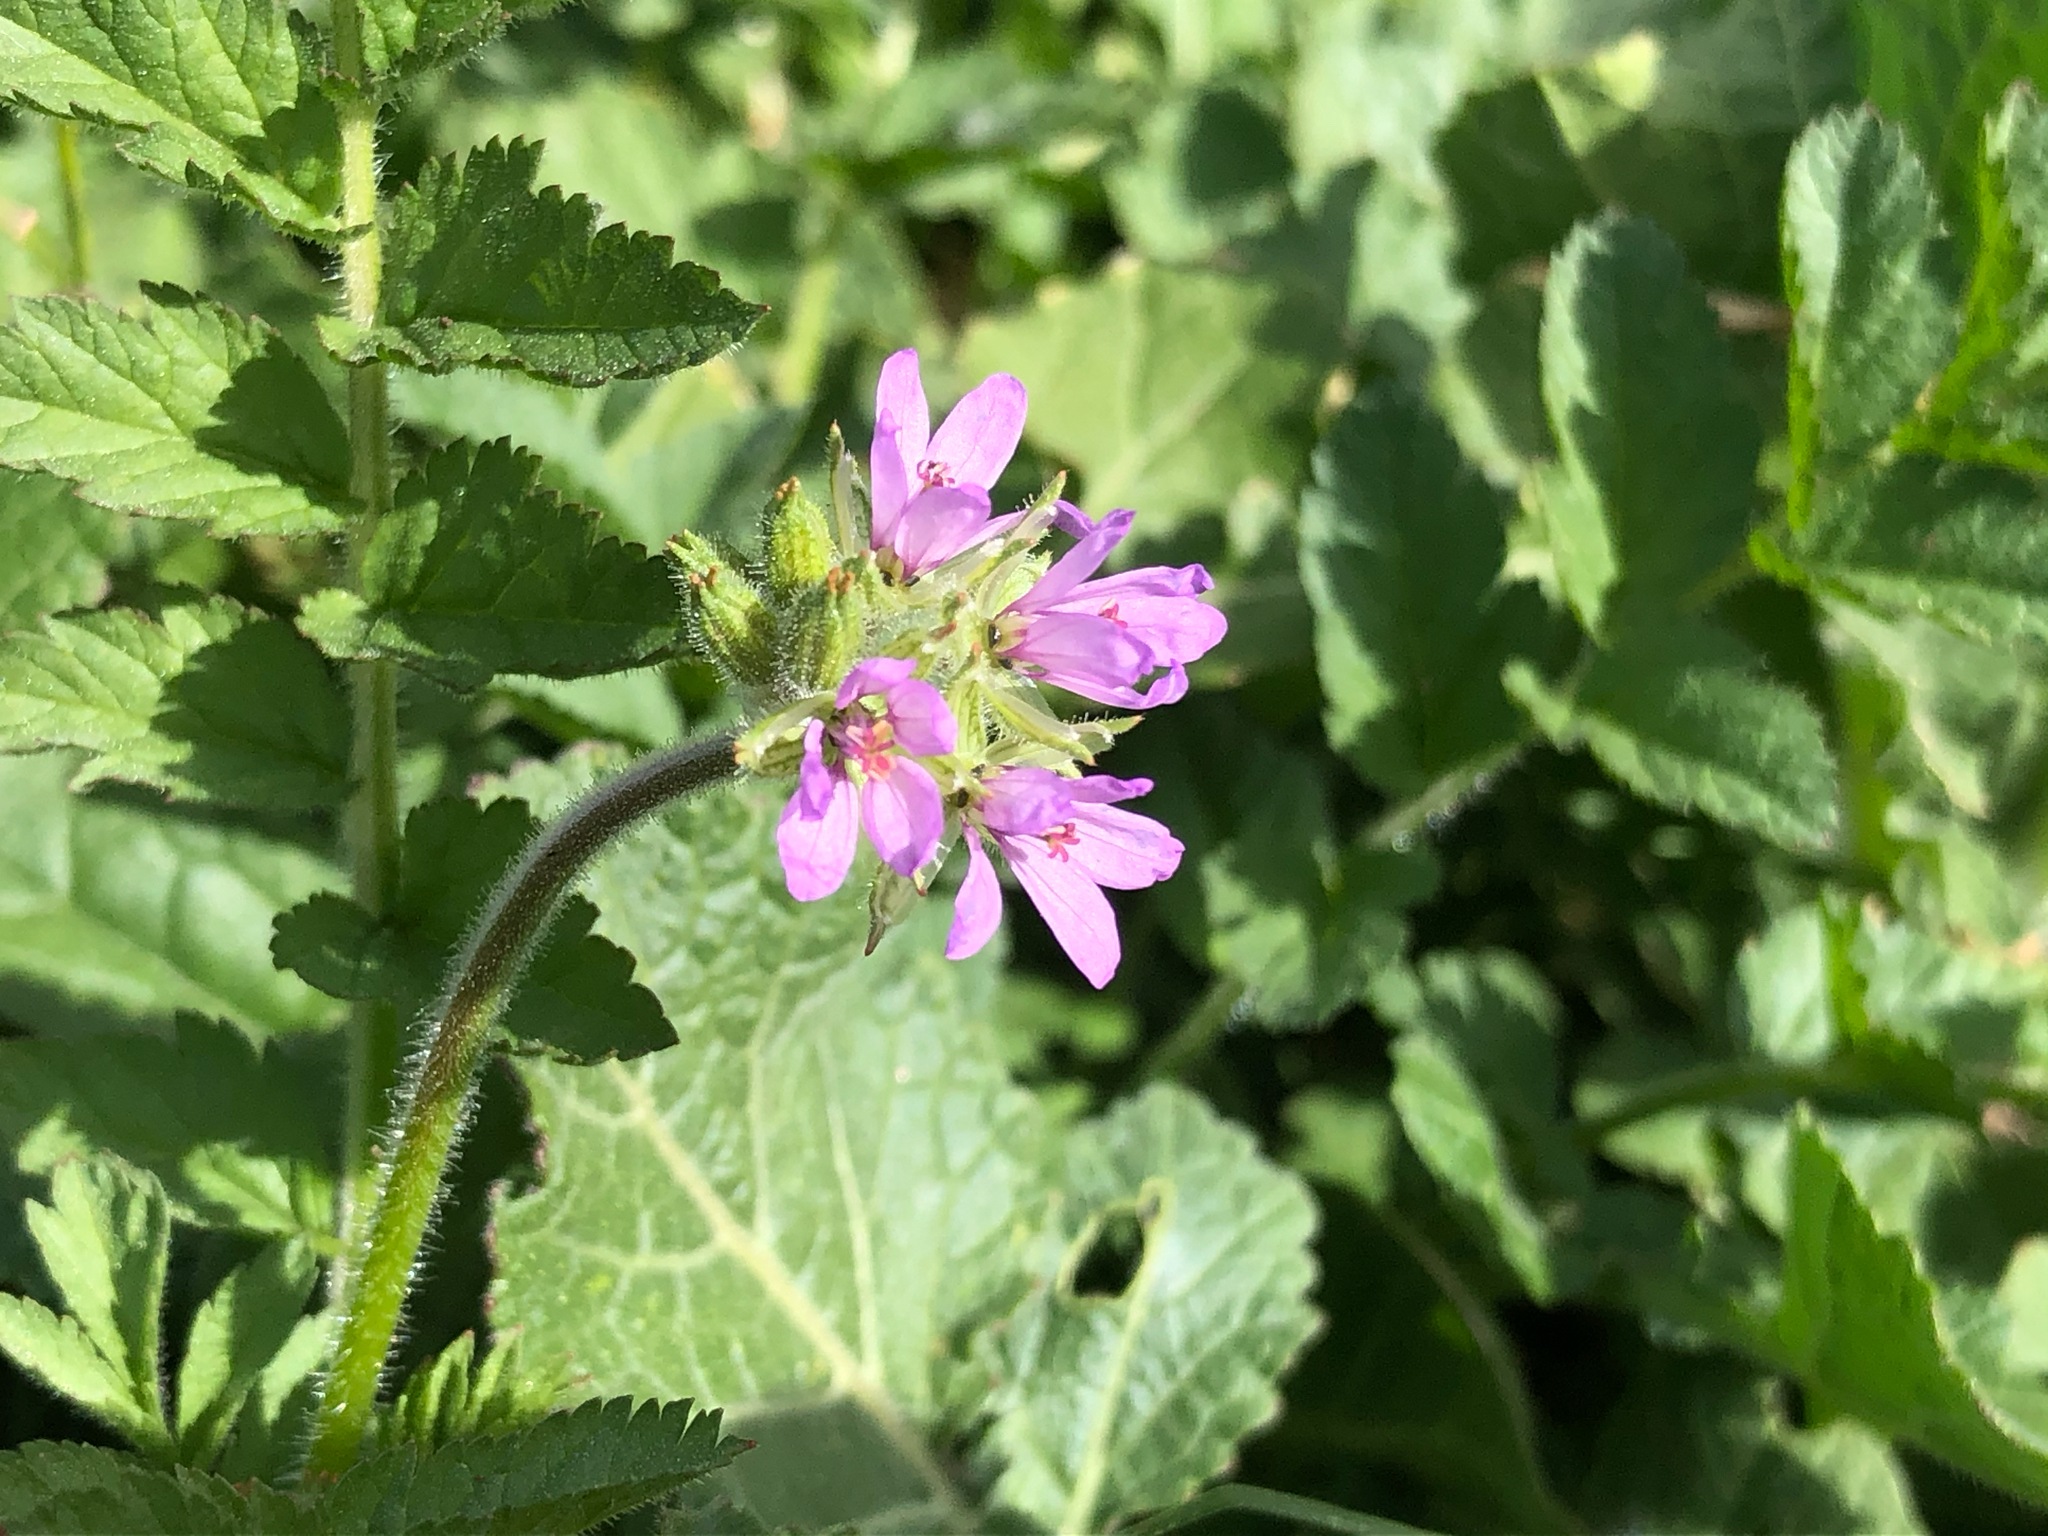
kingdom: Plantae
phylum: Tracheophyta
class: Magnoliopsida
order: Geraniales
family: Geraniaceae
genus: Erodium
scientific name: Erodium moschatum
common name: Musk stork's-bill
